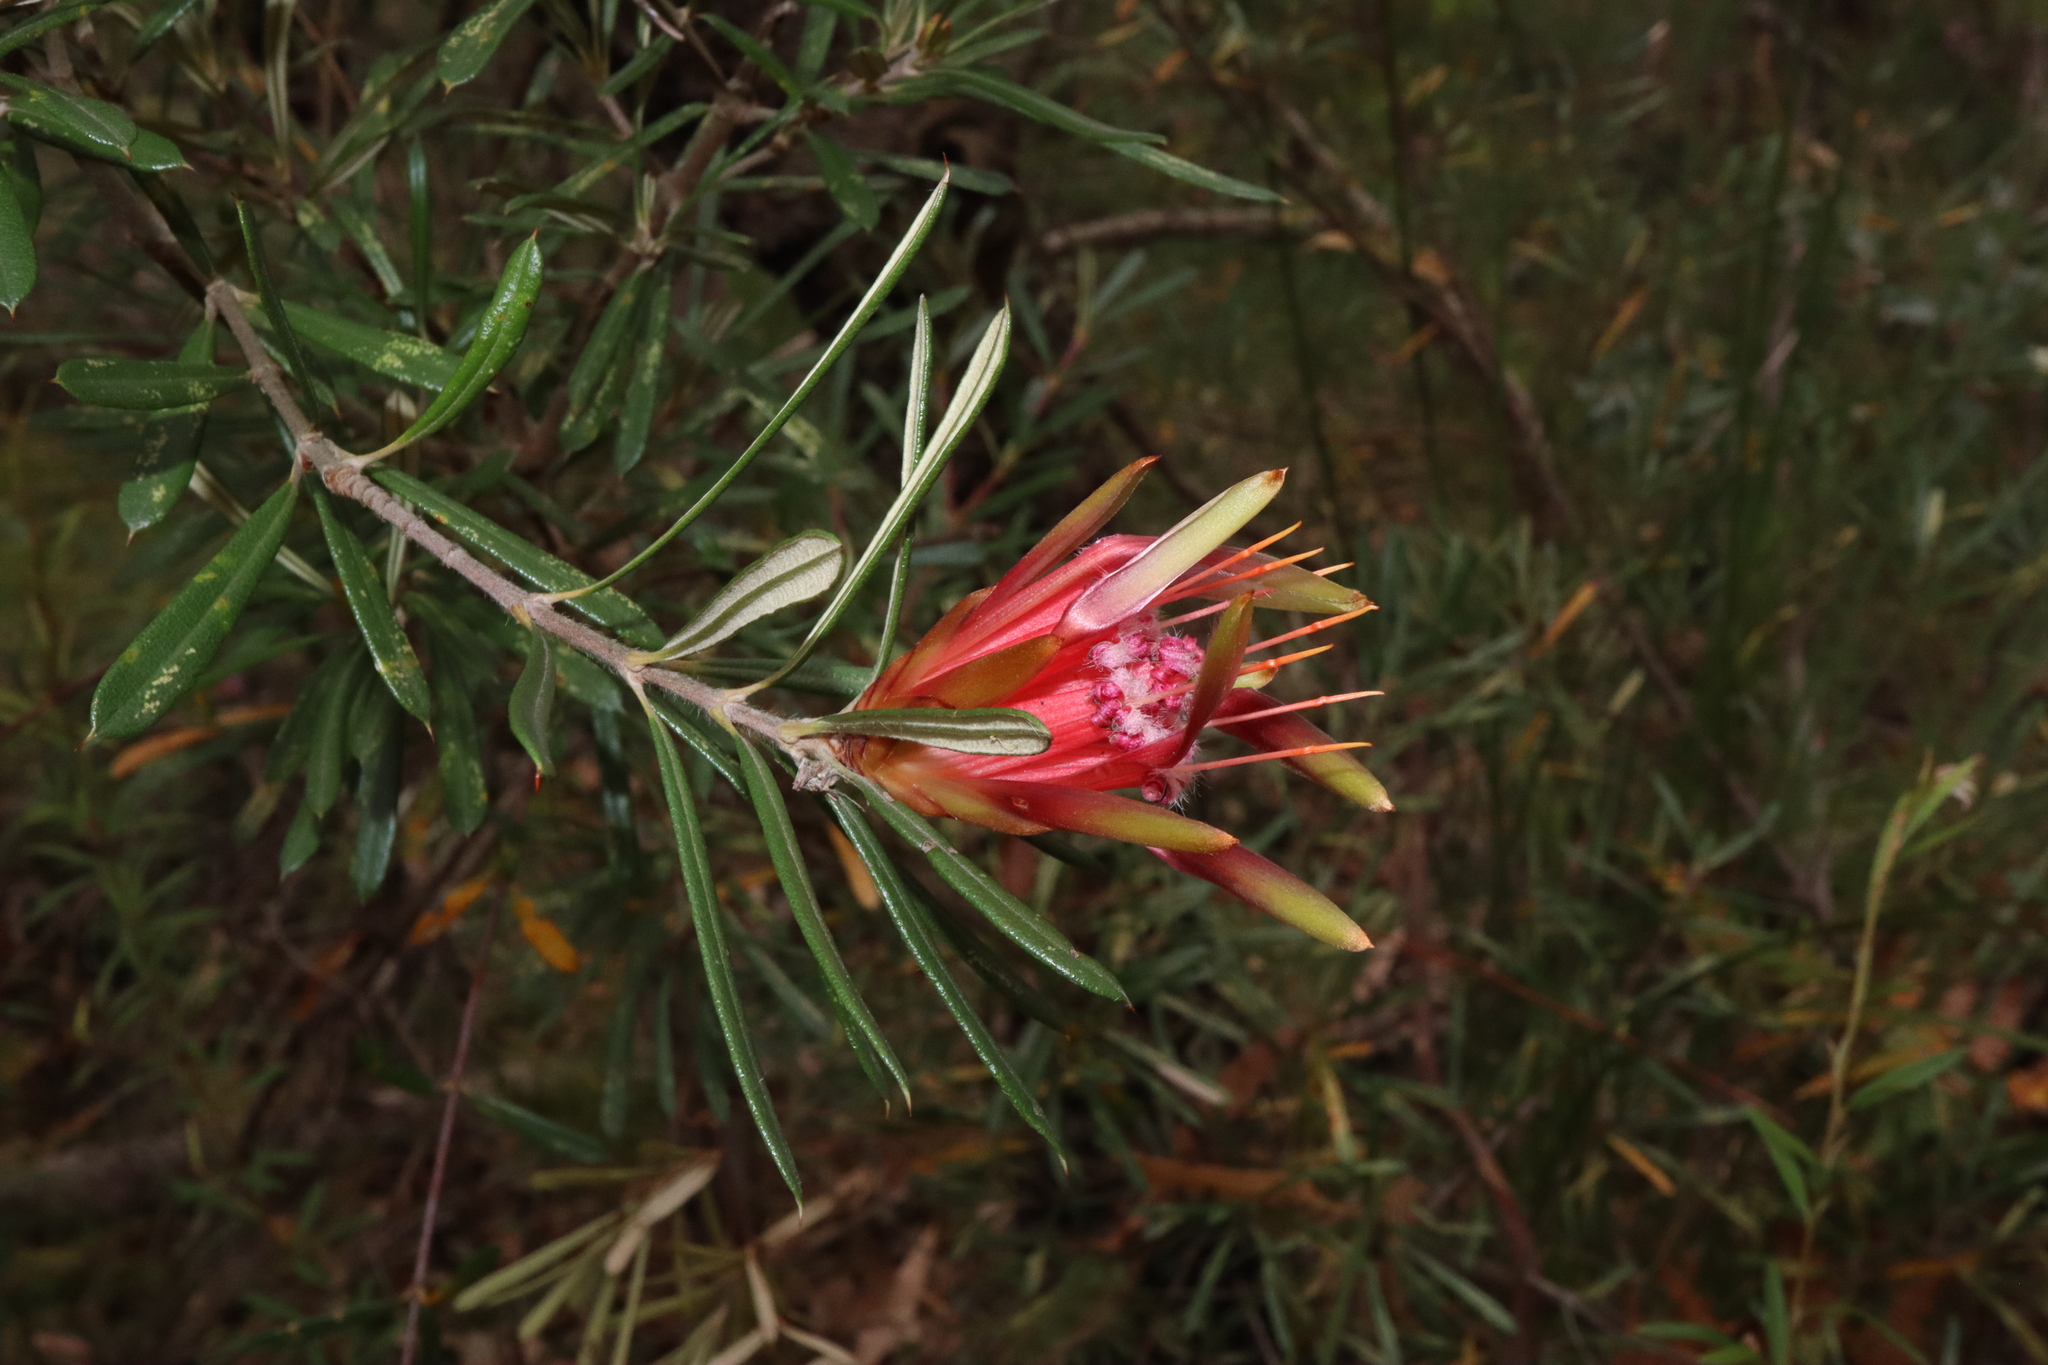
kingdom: Plantae
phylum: Tracheophyta
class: Magnoliopsida
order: Proteales
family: Proteaceae
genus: Lambertia
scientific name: Lambertia formosa
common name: Mountain-devil
